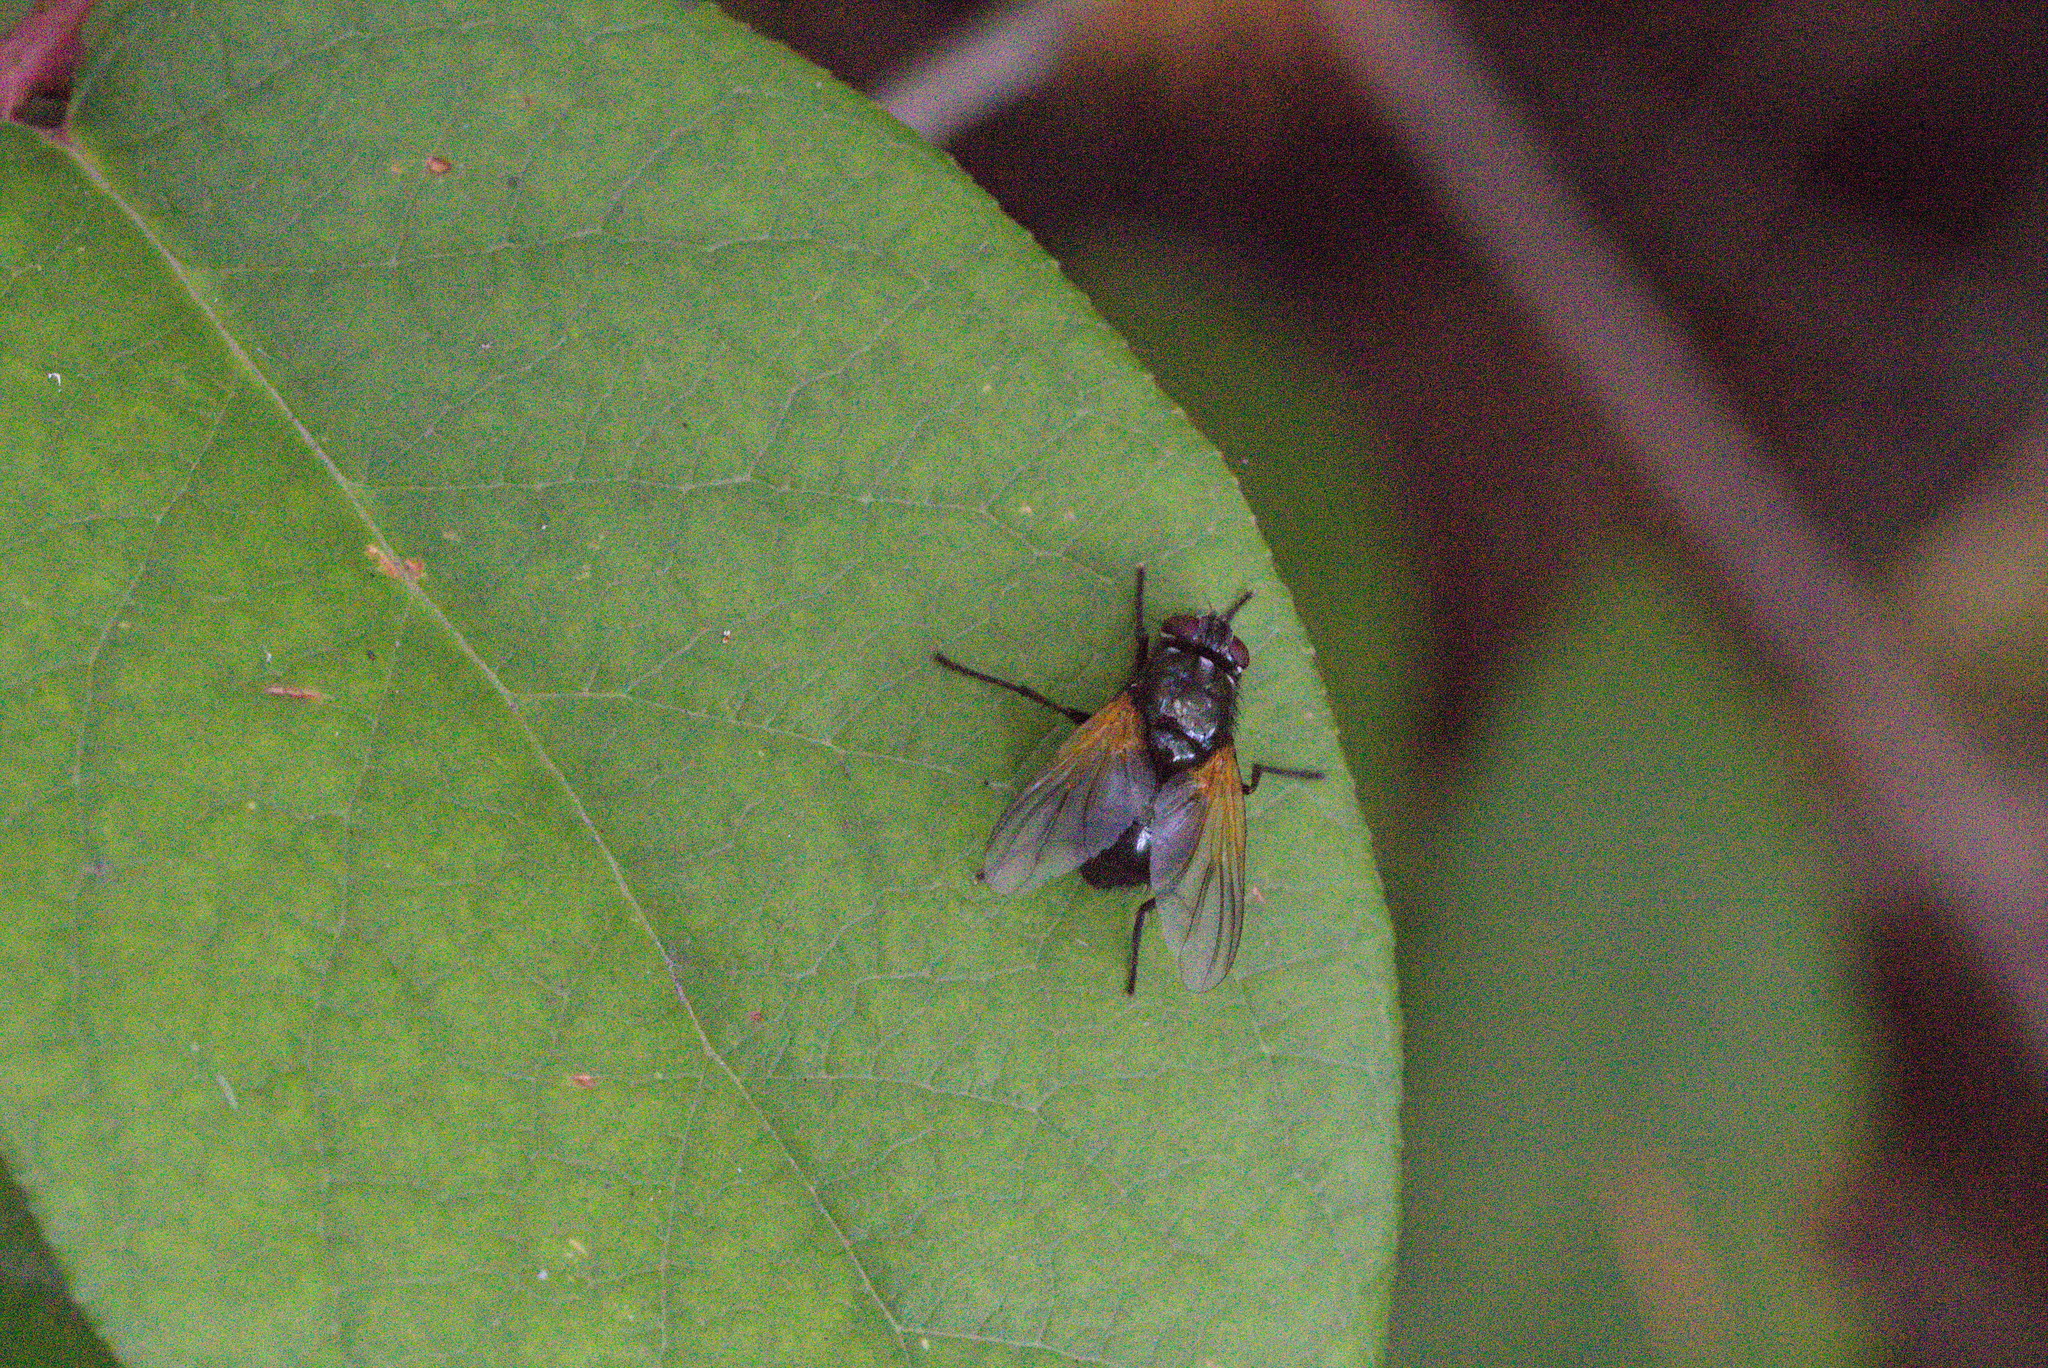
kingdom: Animalia
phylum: Arthropoda
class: Insecta
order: Diptera
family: Muscidae
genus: Mesembrina
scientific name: Mesembrina latreillii
